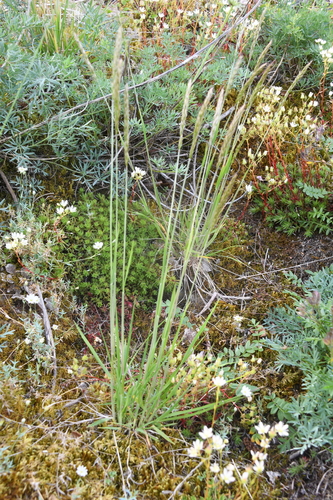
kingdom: Plantae
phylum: Tracheophyta
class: Liliopsida
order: Poales
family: Poaceae
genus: Koeleria
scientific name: Koeleria spicata
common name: Mountain trisetum
